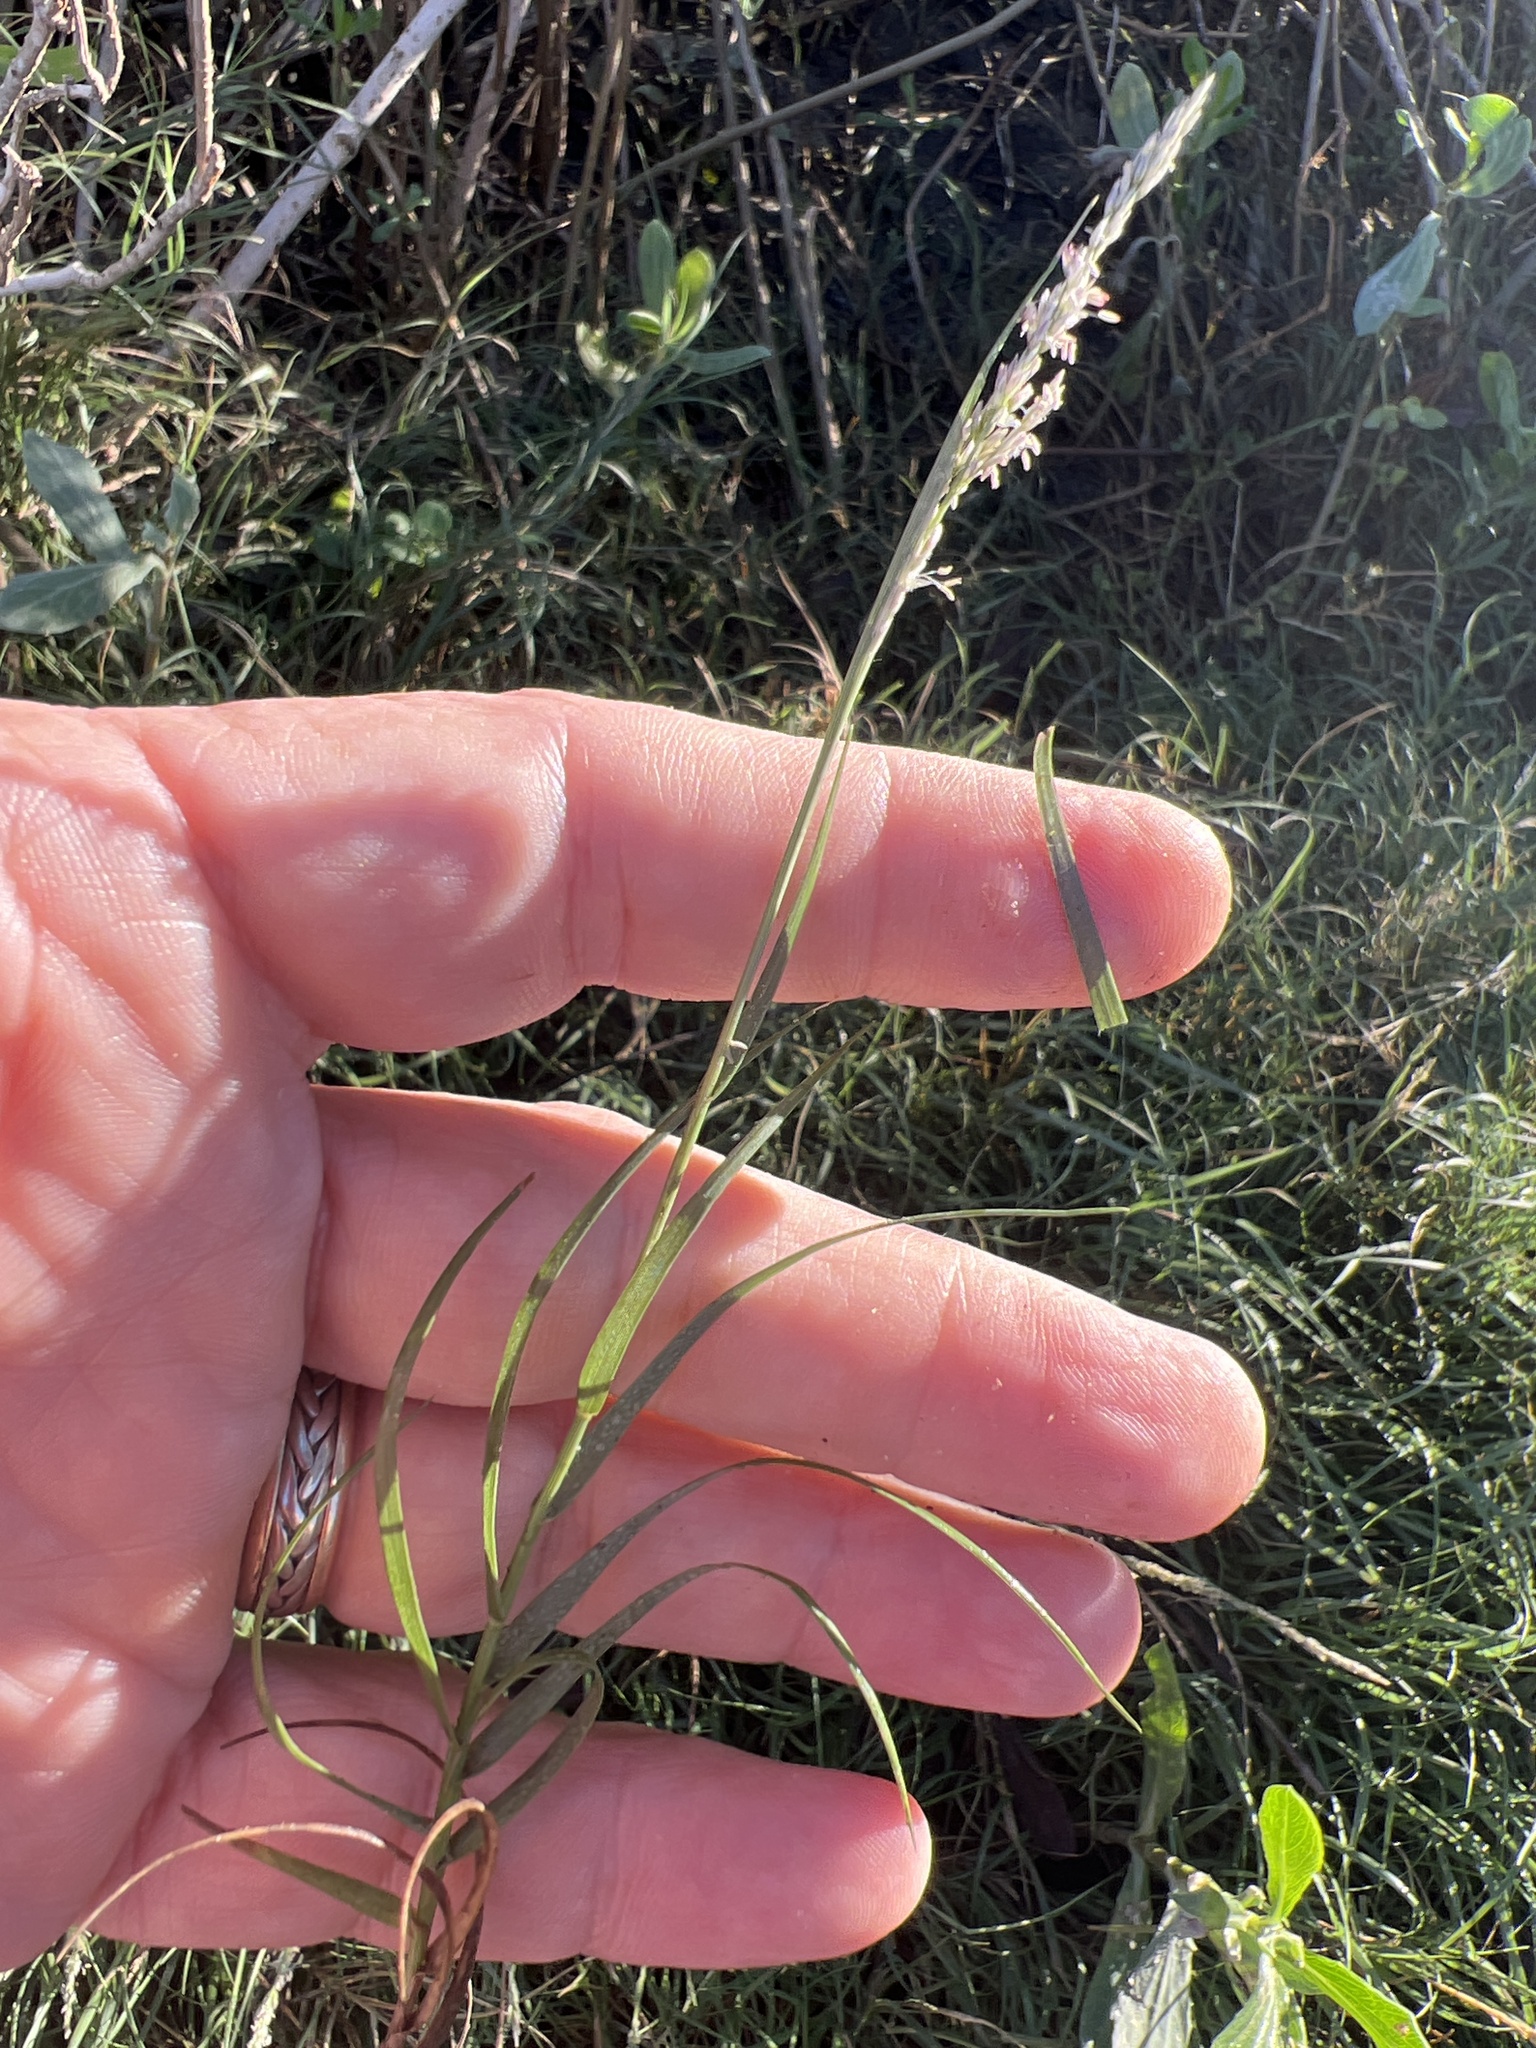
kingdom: Plantae
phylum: Tracheophyta
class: Liliopsida
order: Poales
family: Poaceae
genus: Sporobolus
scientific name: Sporobolus virginicus
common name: Beach dropseed
